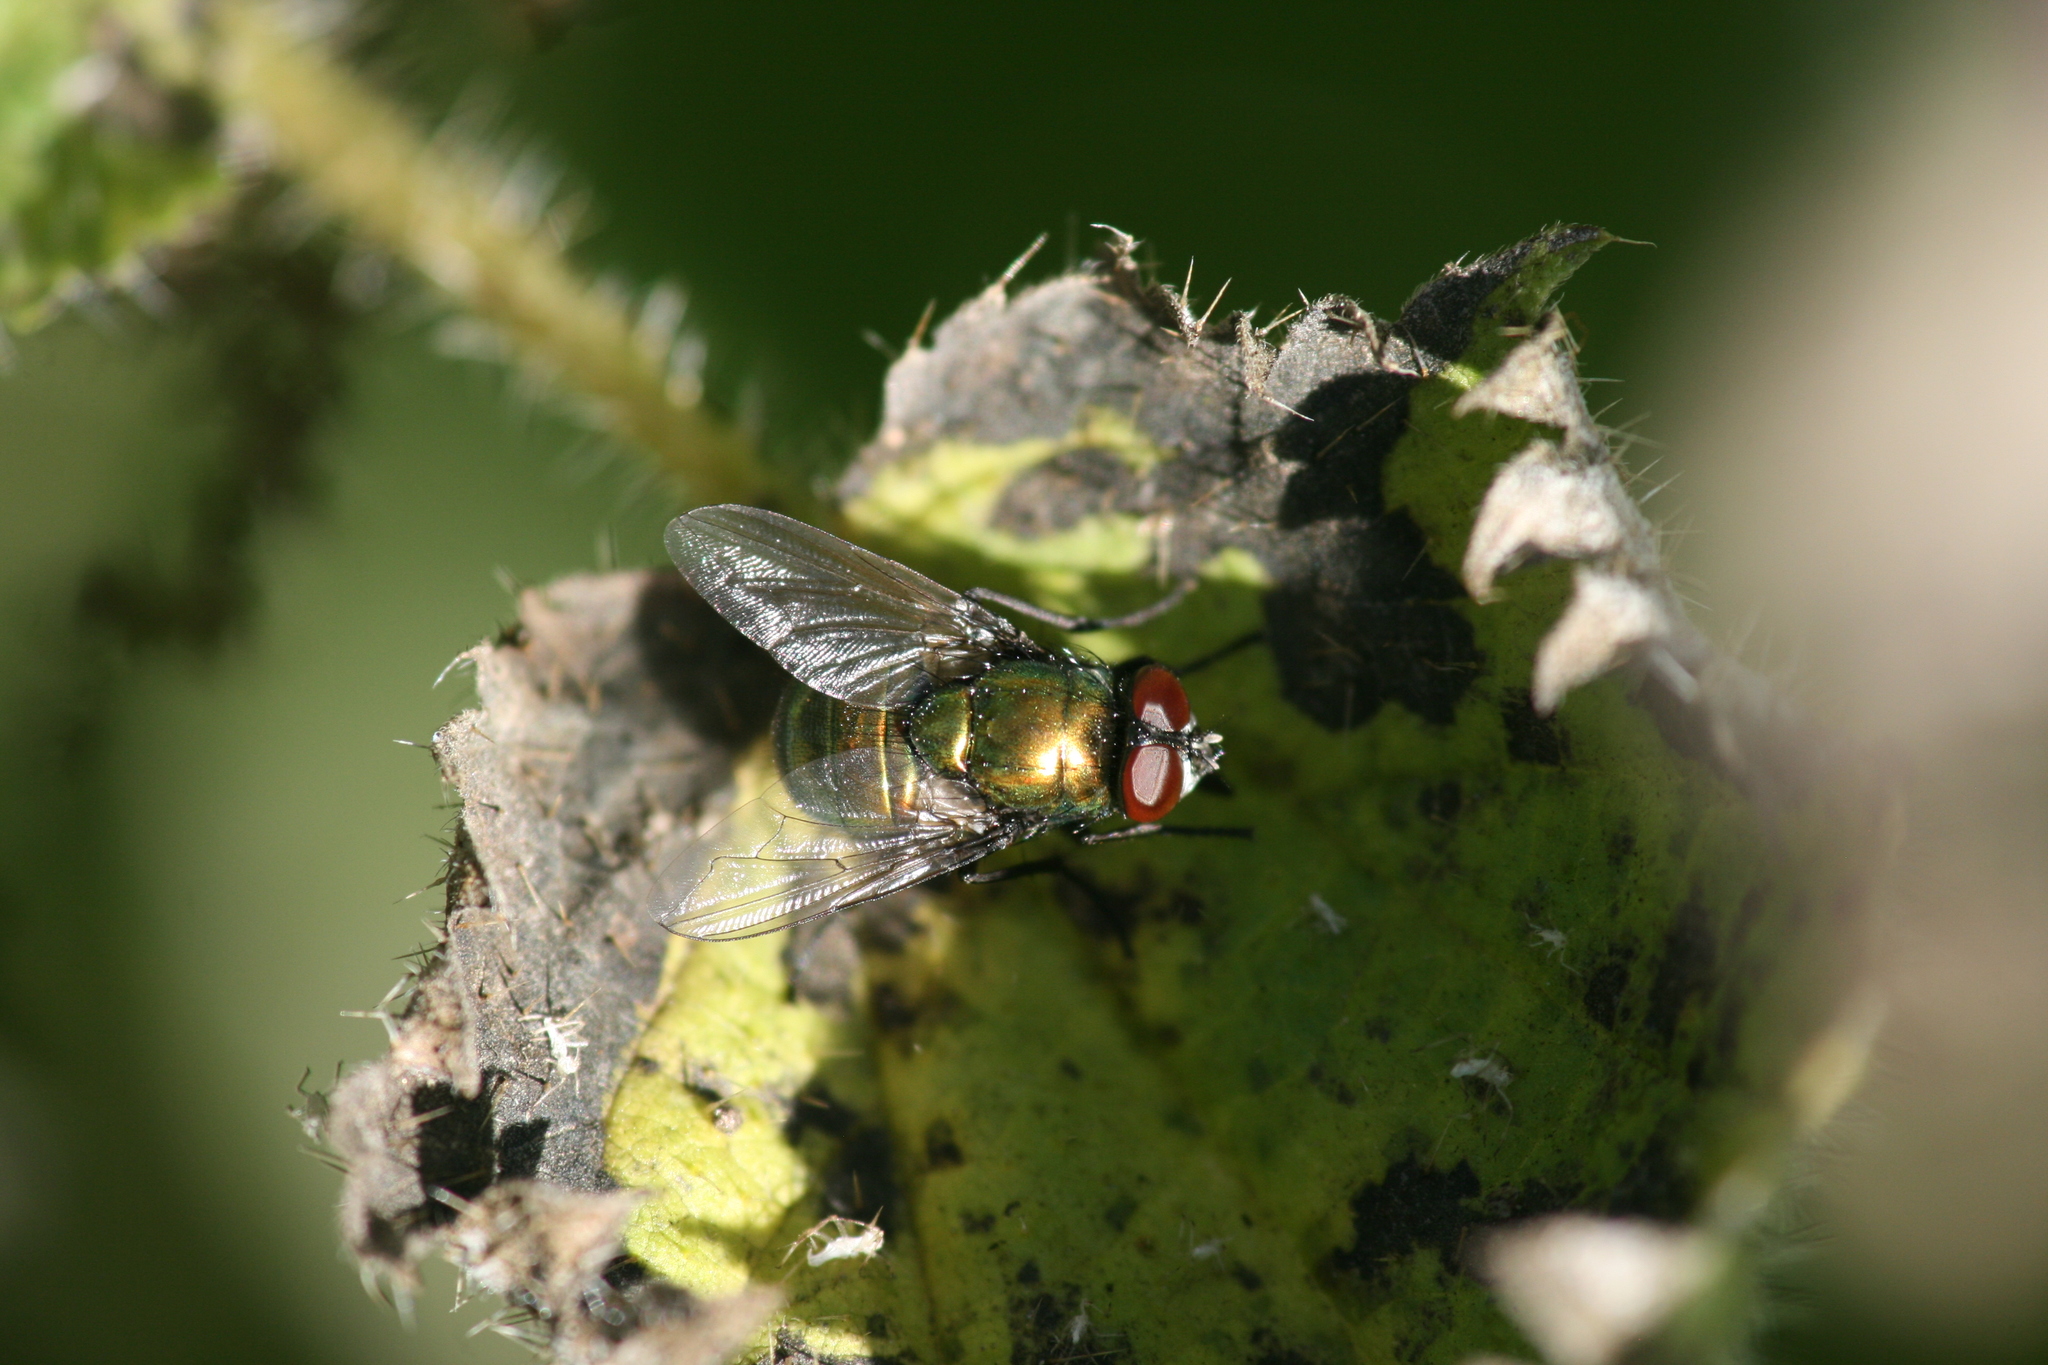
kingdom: Animalia
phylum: Arthropoda
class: Insecta
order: Diptera
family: Muscidae
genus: Neomyia
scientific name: Neomyia viridescens
